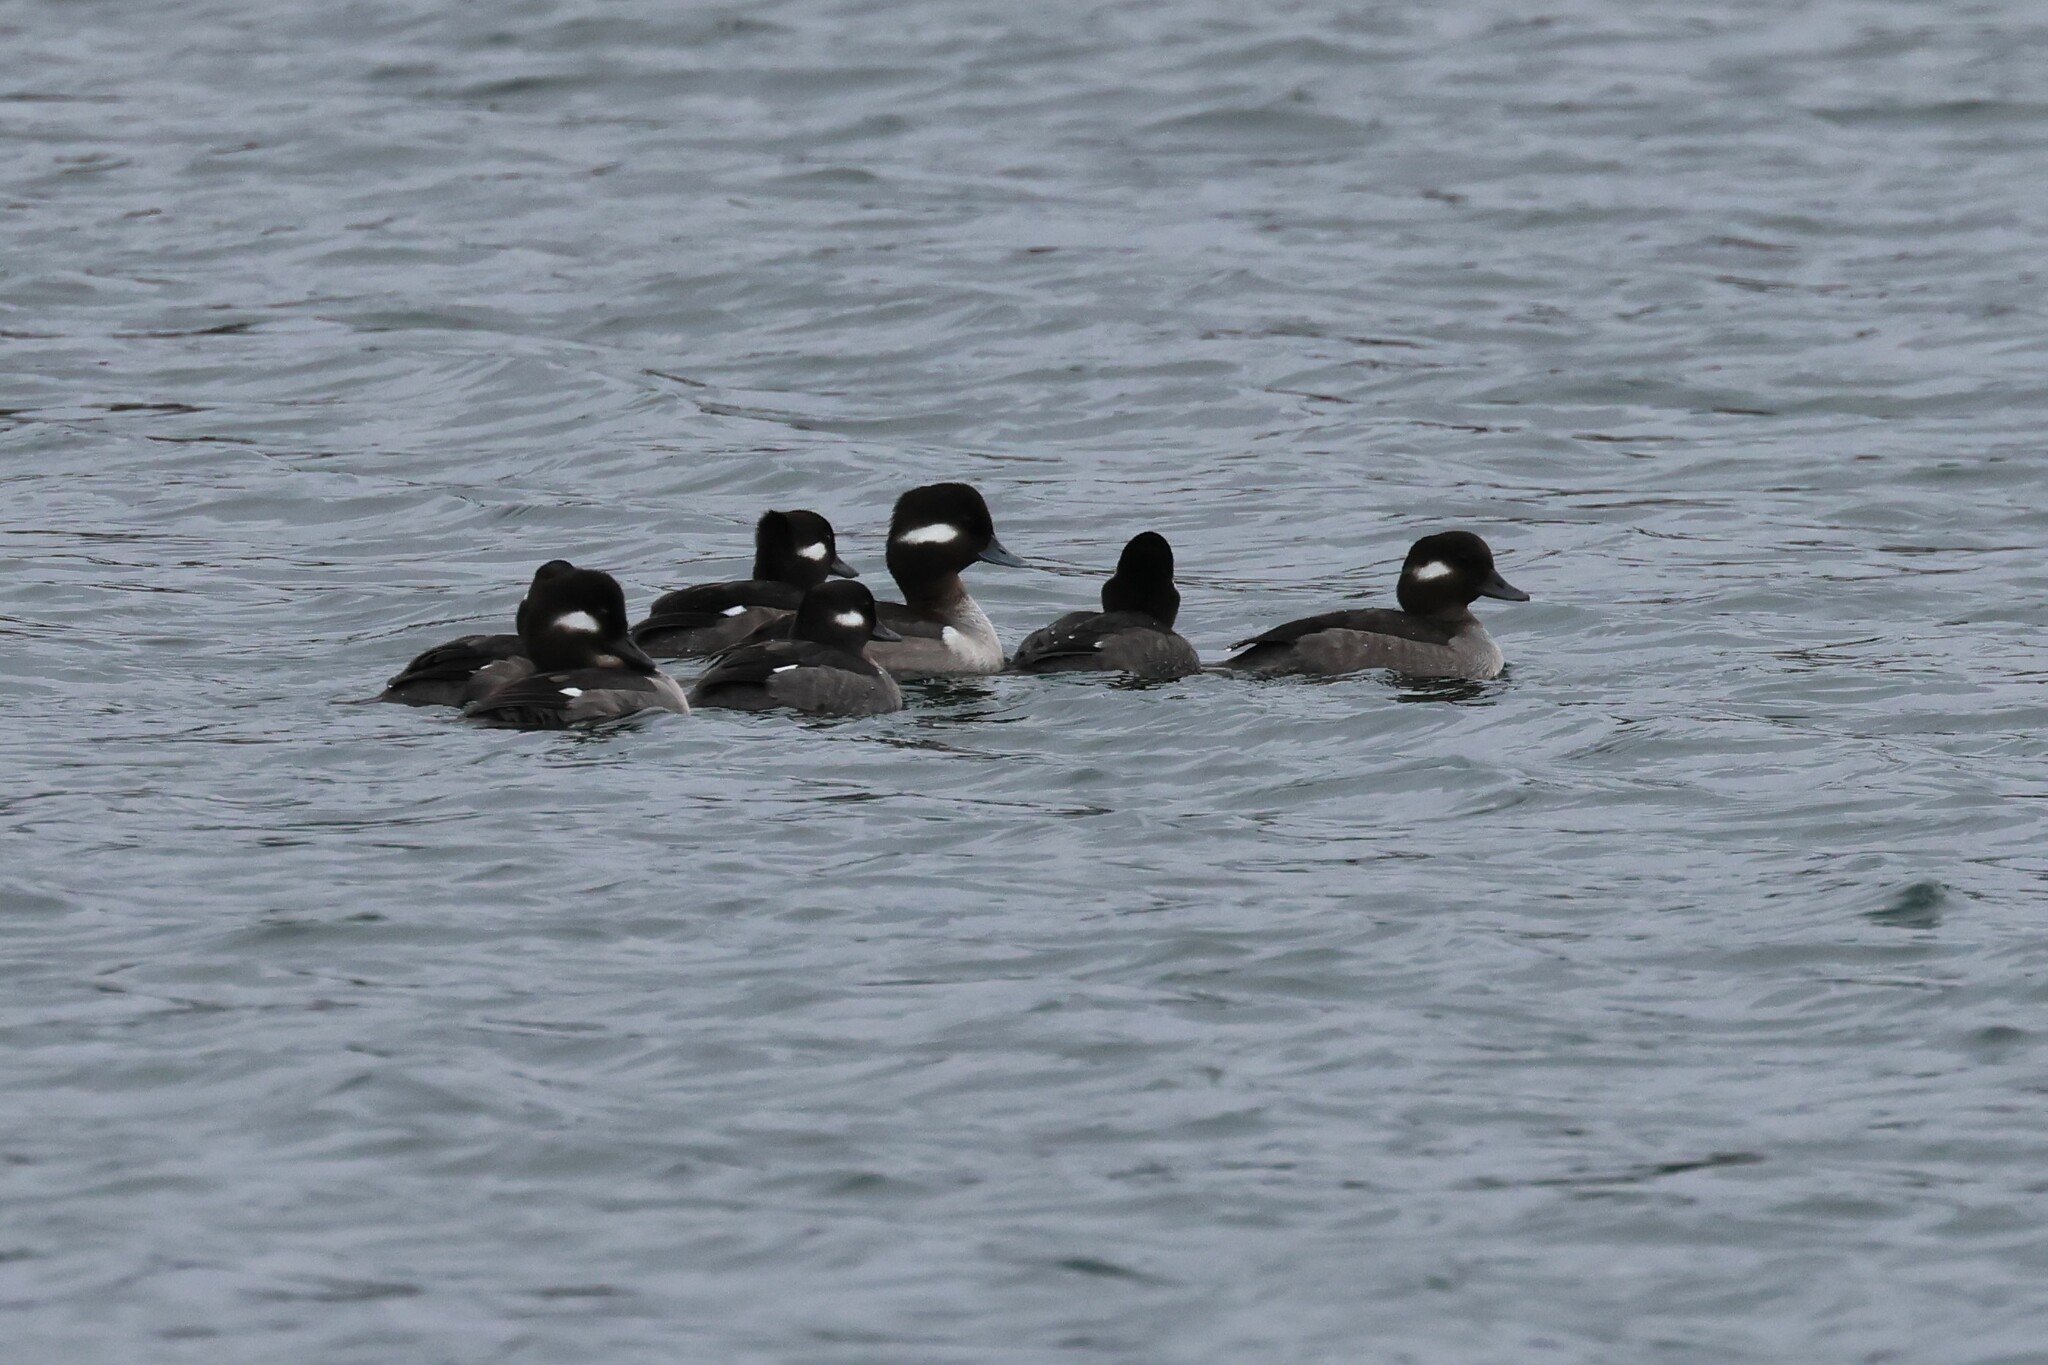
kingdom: Animalia
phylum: Chordata
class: Aves
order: Anseriformes
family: Anatidae
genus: Bucephala
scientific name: Bucephala albeola
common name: Bufflehead
